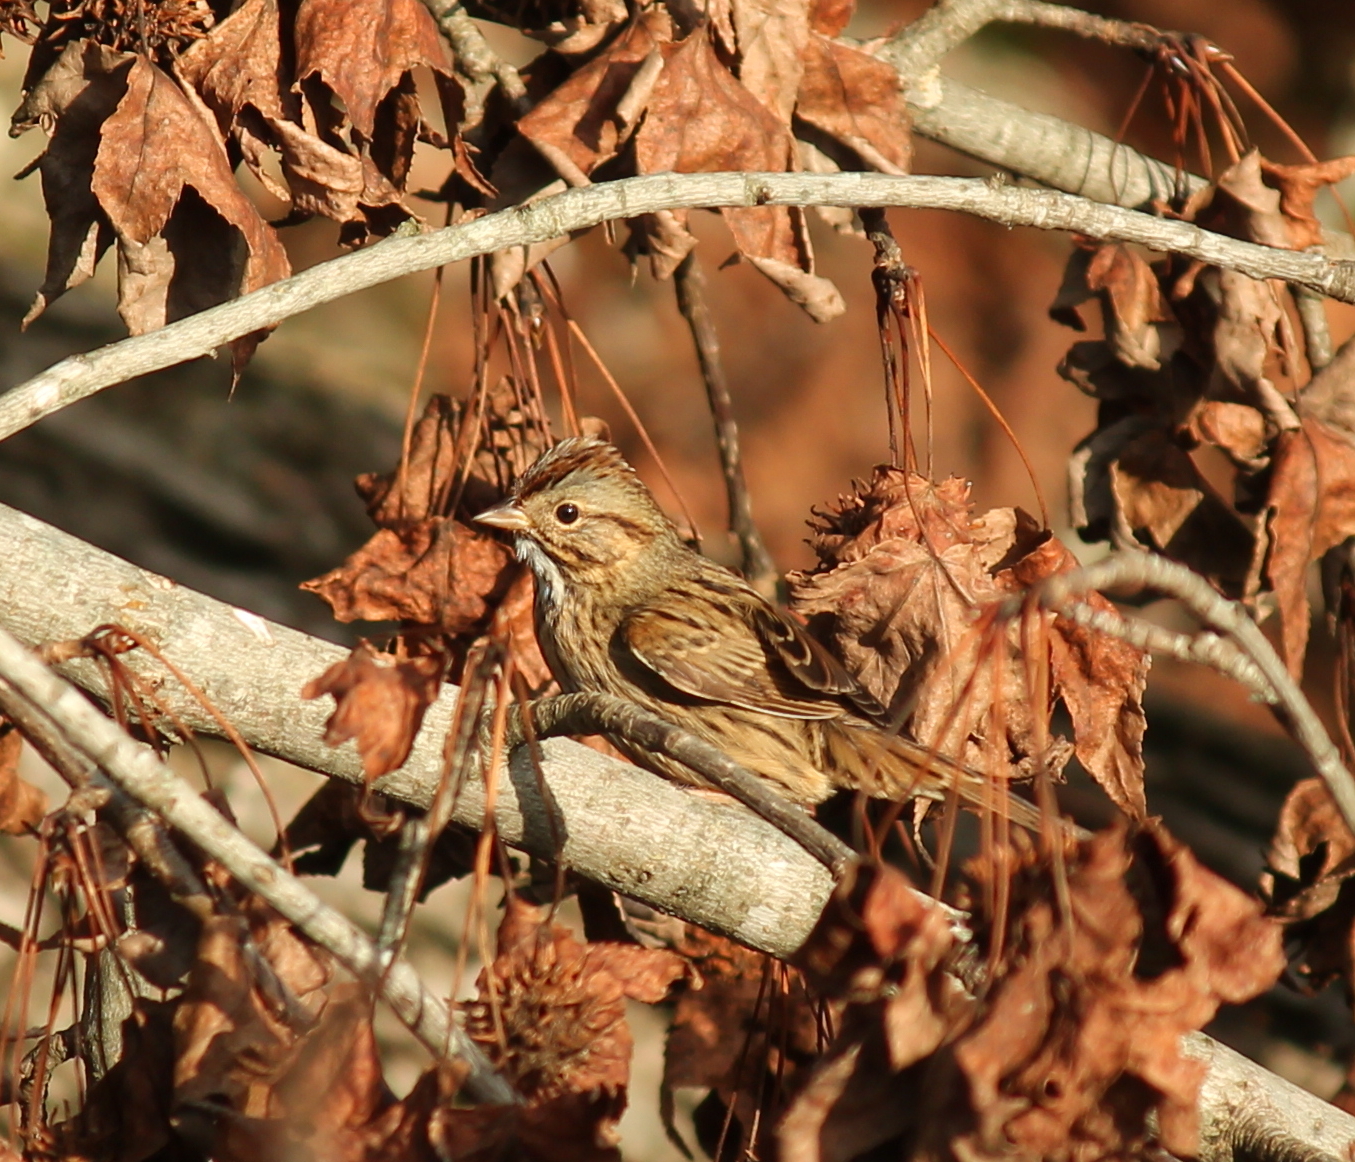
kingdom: Animalia
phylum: Chordata
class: Aves
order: Passeriformes
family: Passerellidae
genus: Melospiza
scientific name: Melospiza lincolnii
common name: Lincoln's sparrow
